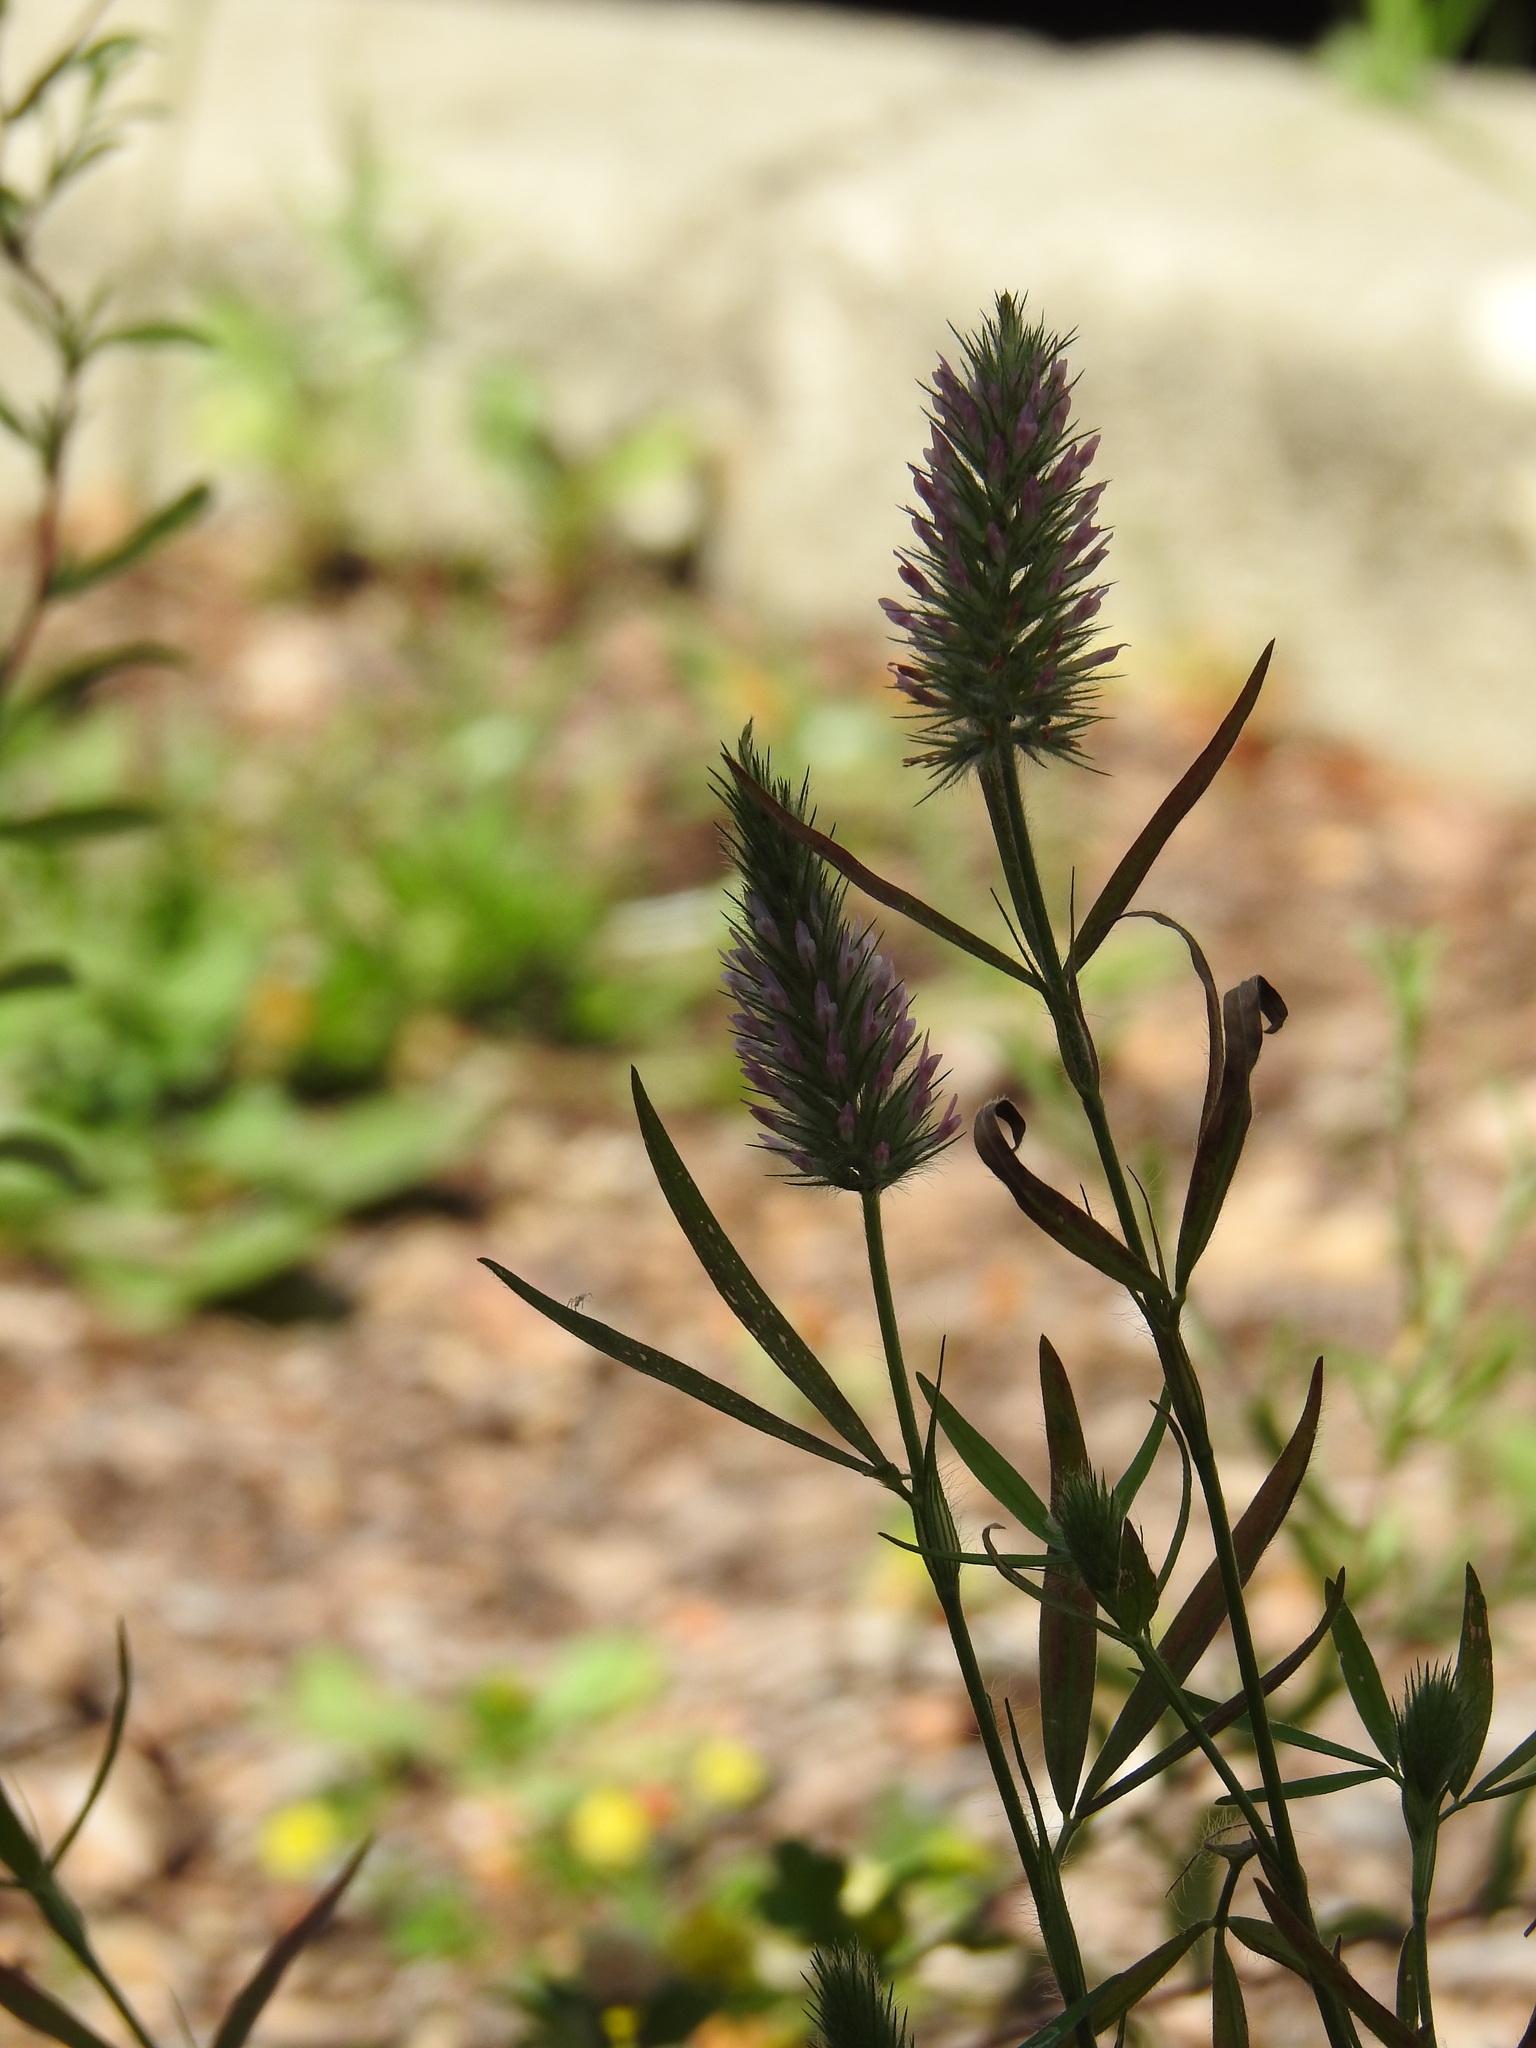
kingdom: Plantae
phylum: Tracheophyta
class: Magnoliopsida
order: Fabales
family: Fabaceae
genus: Trifolium
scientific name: Trifolium angustifolium
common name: Narrow clover
